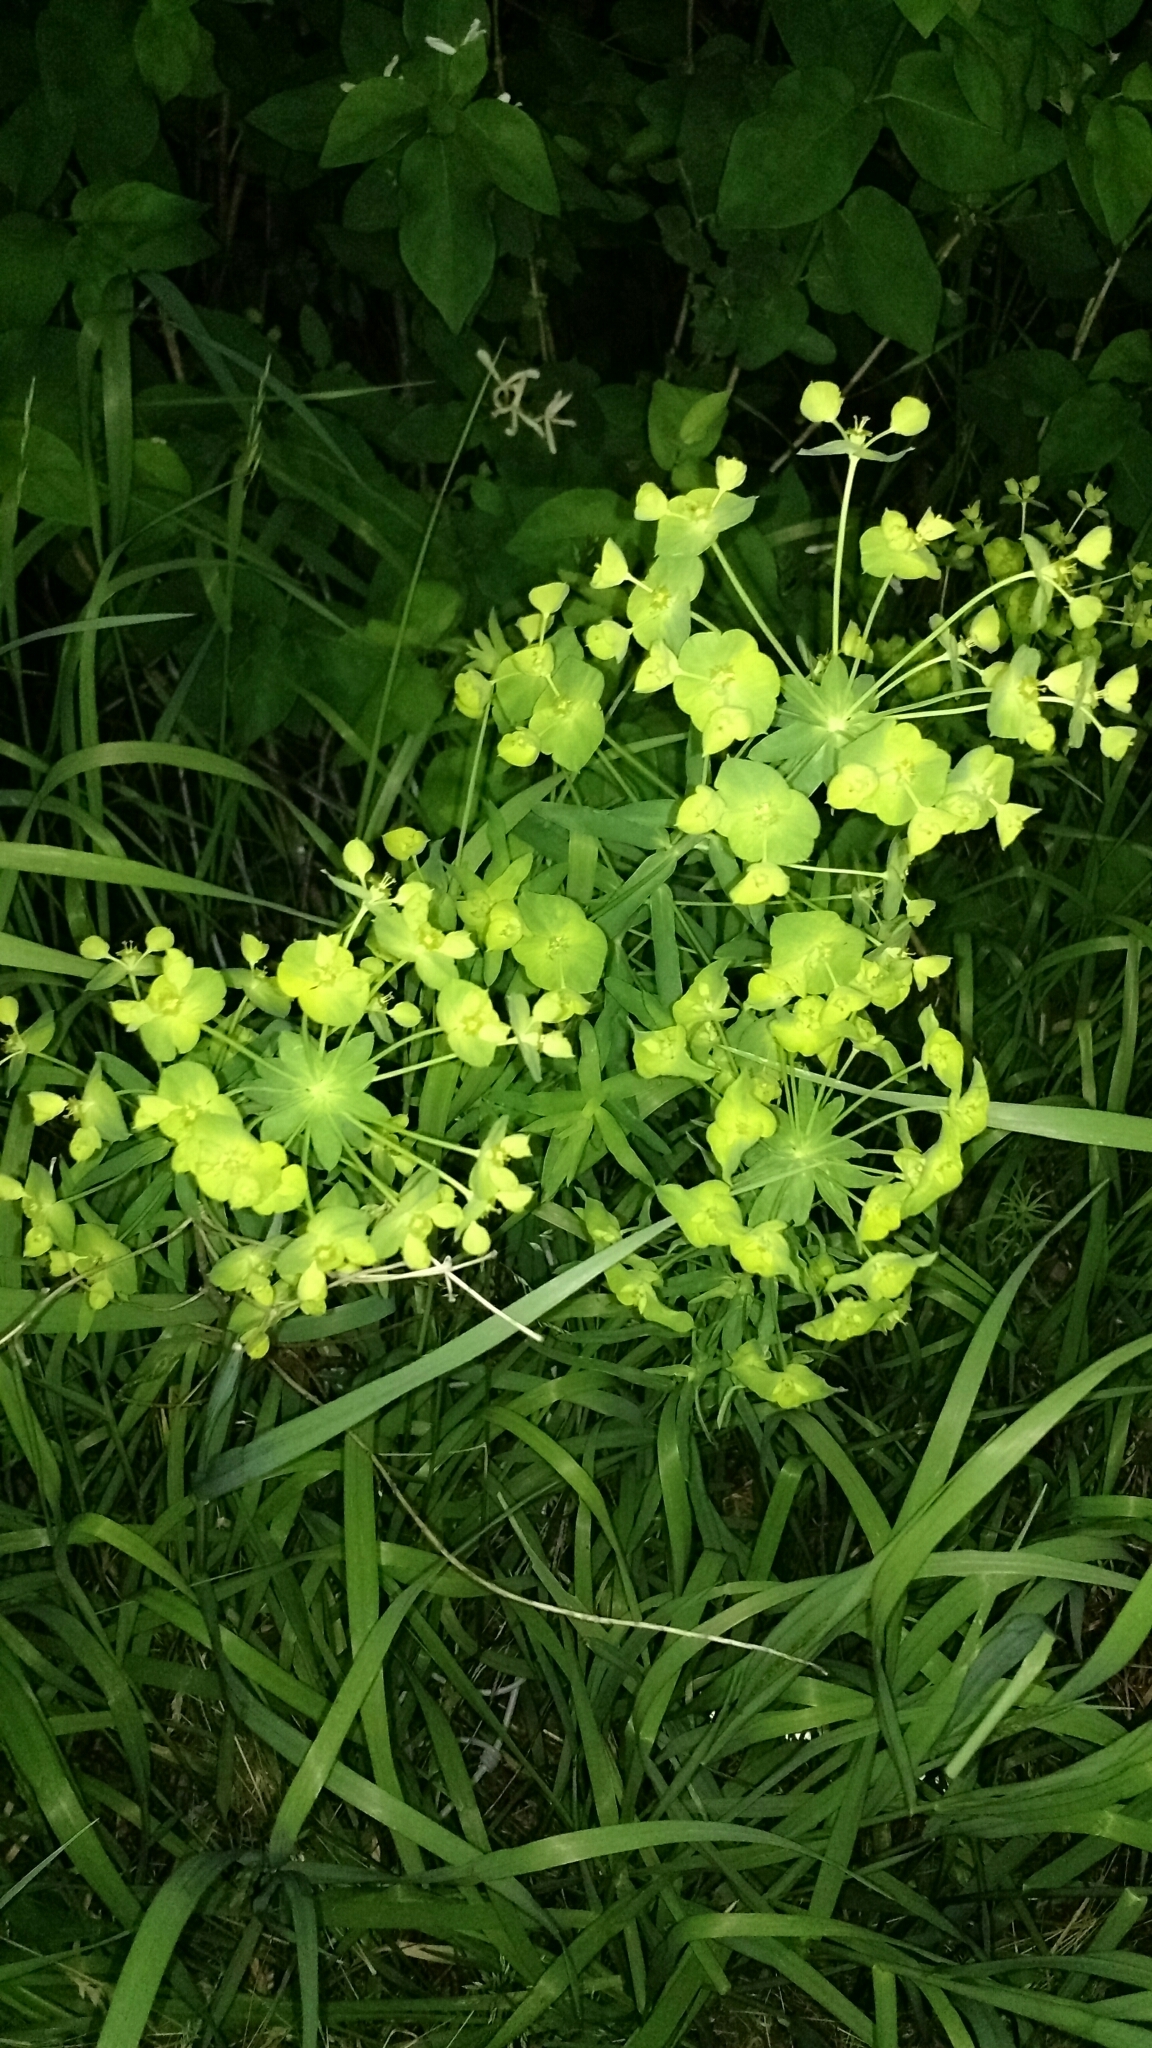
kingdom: Plantae
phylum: Tracheophyta
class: Magnoliopsida
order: Malpighiales
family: Euphorbiaceae
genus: Euphorbia
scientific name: Euphorbia virgata
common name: Leafy spurge
